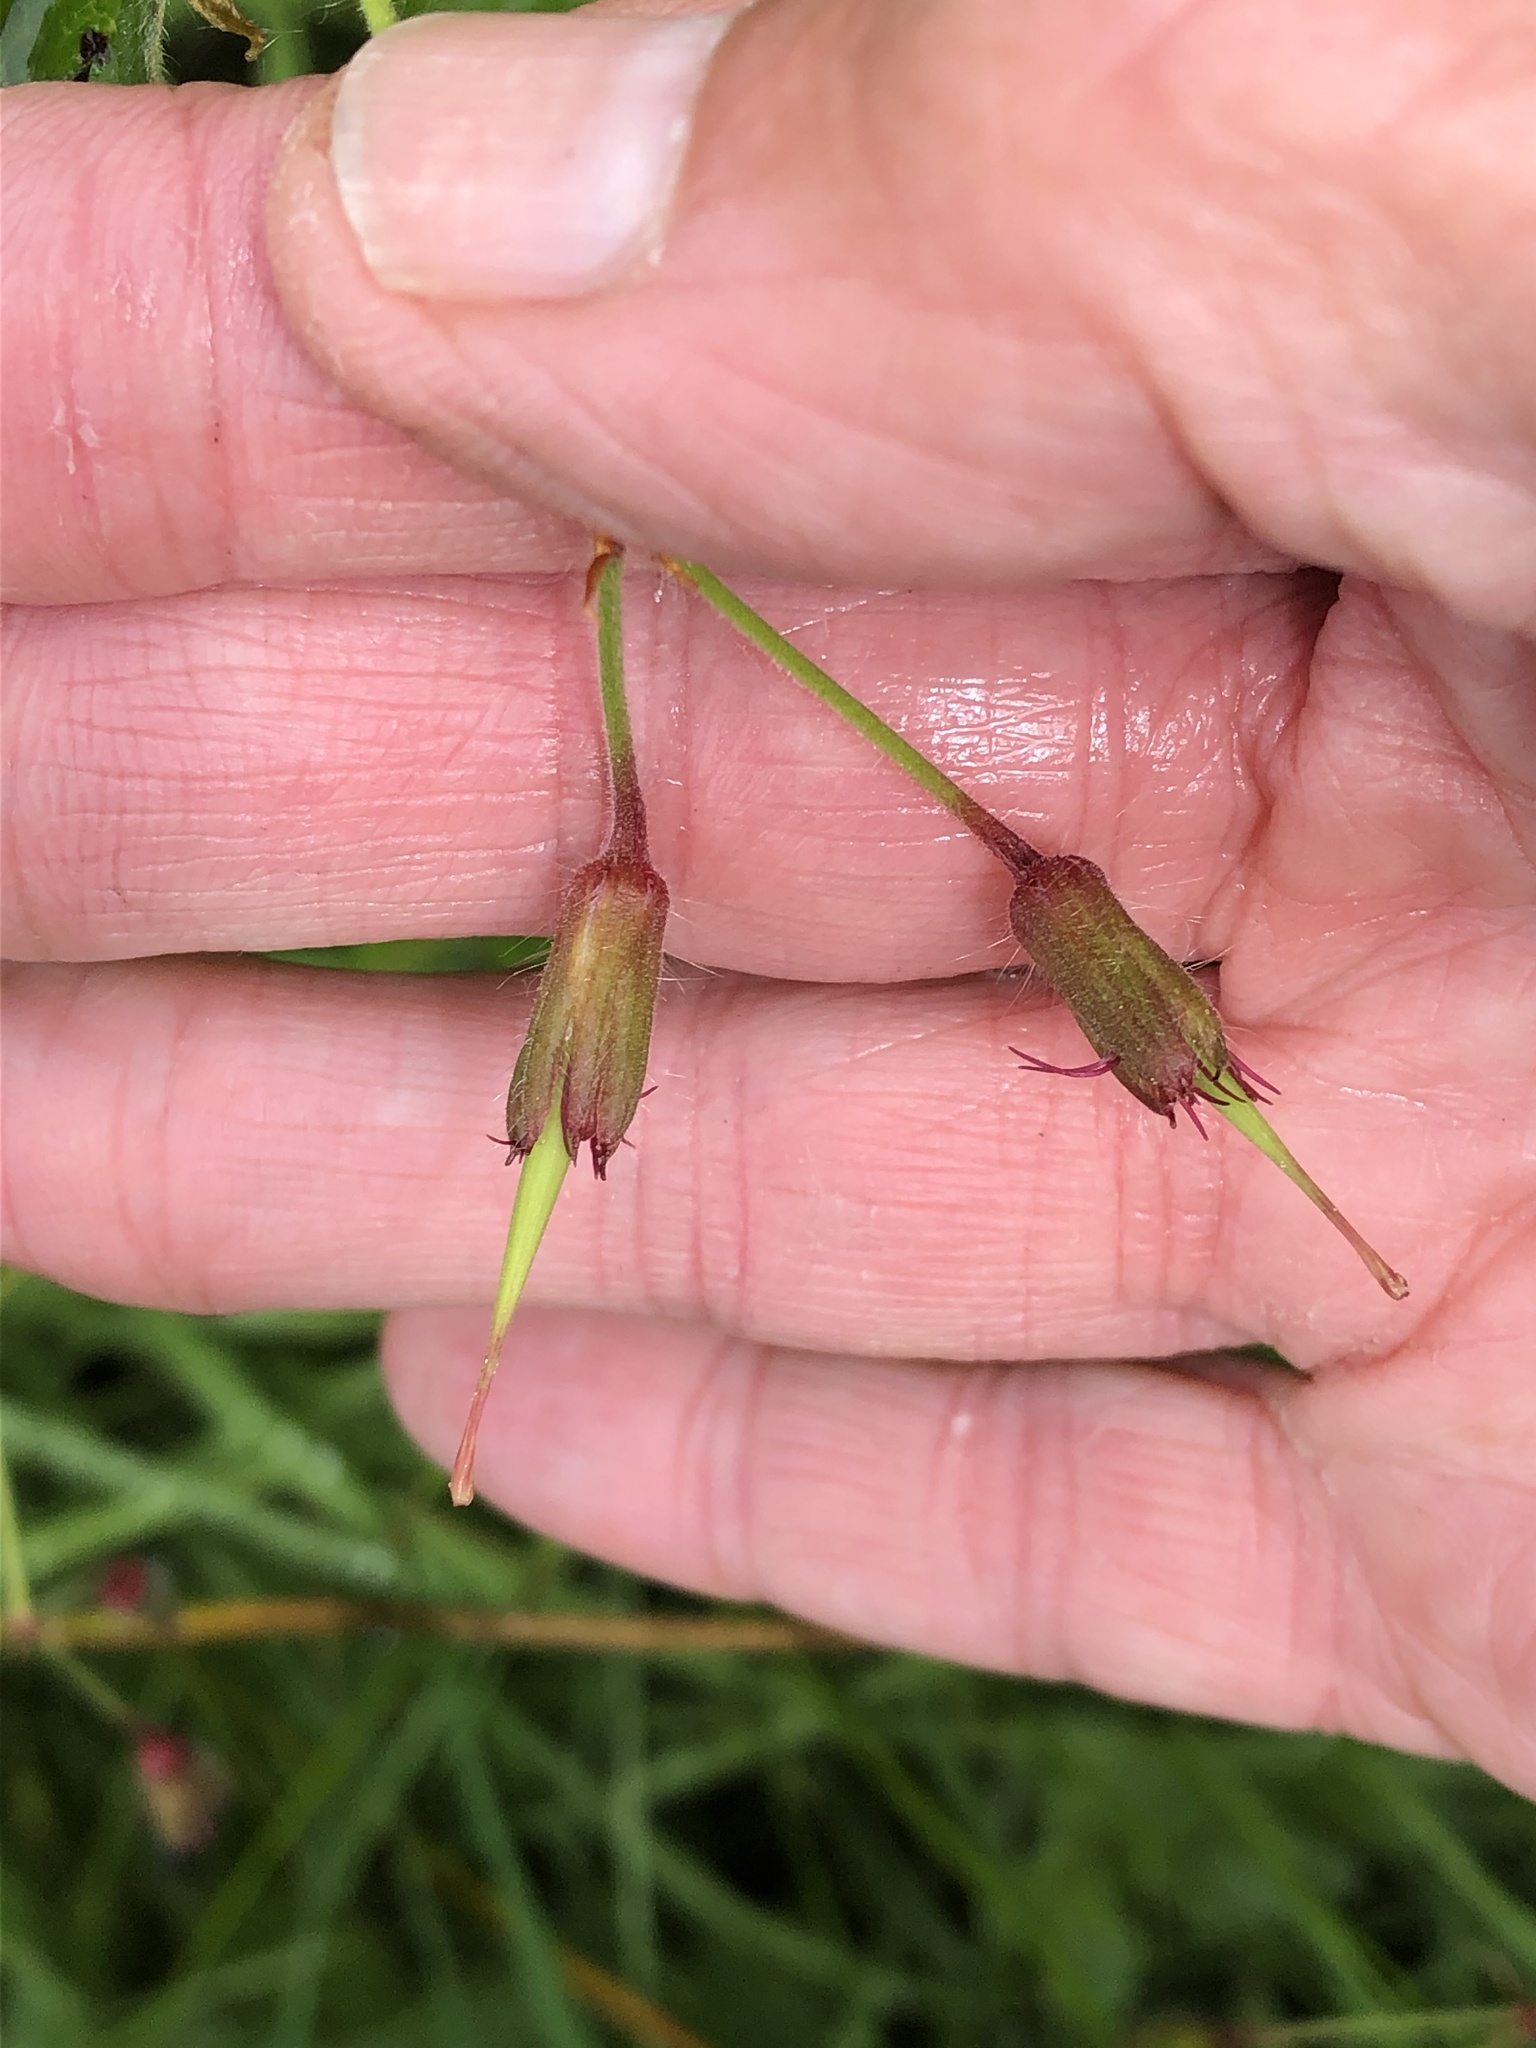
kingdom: Plantae
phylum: Tracheophyta
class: Magnoliopsida
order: Geraniales
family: Geraniaceae
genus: Geranium
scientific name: Geranium phaeum
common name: Dusky crane's-bill
